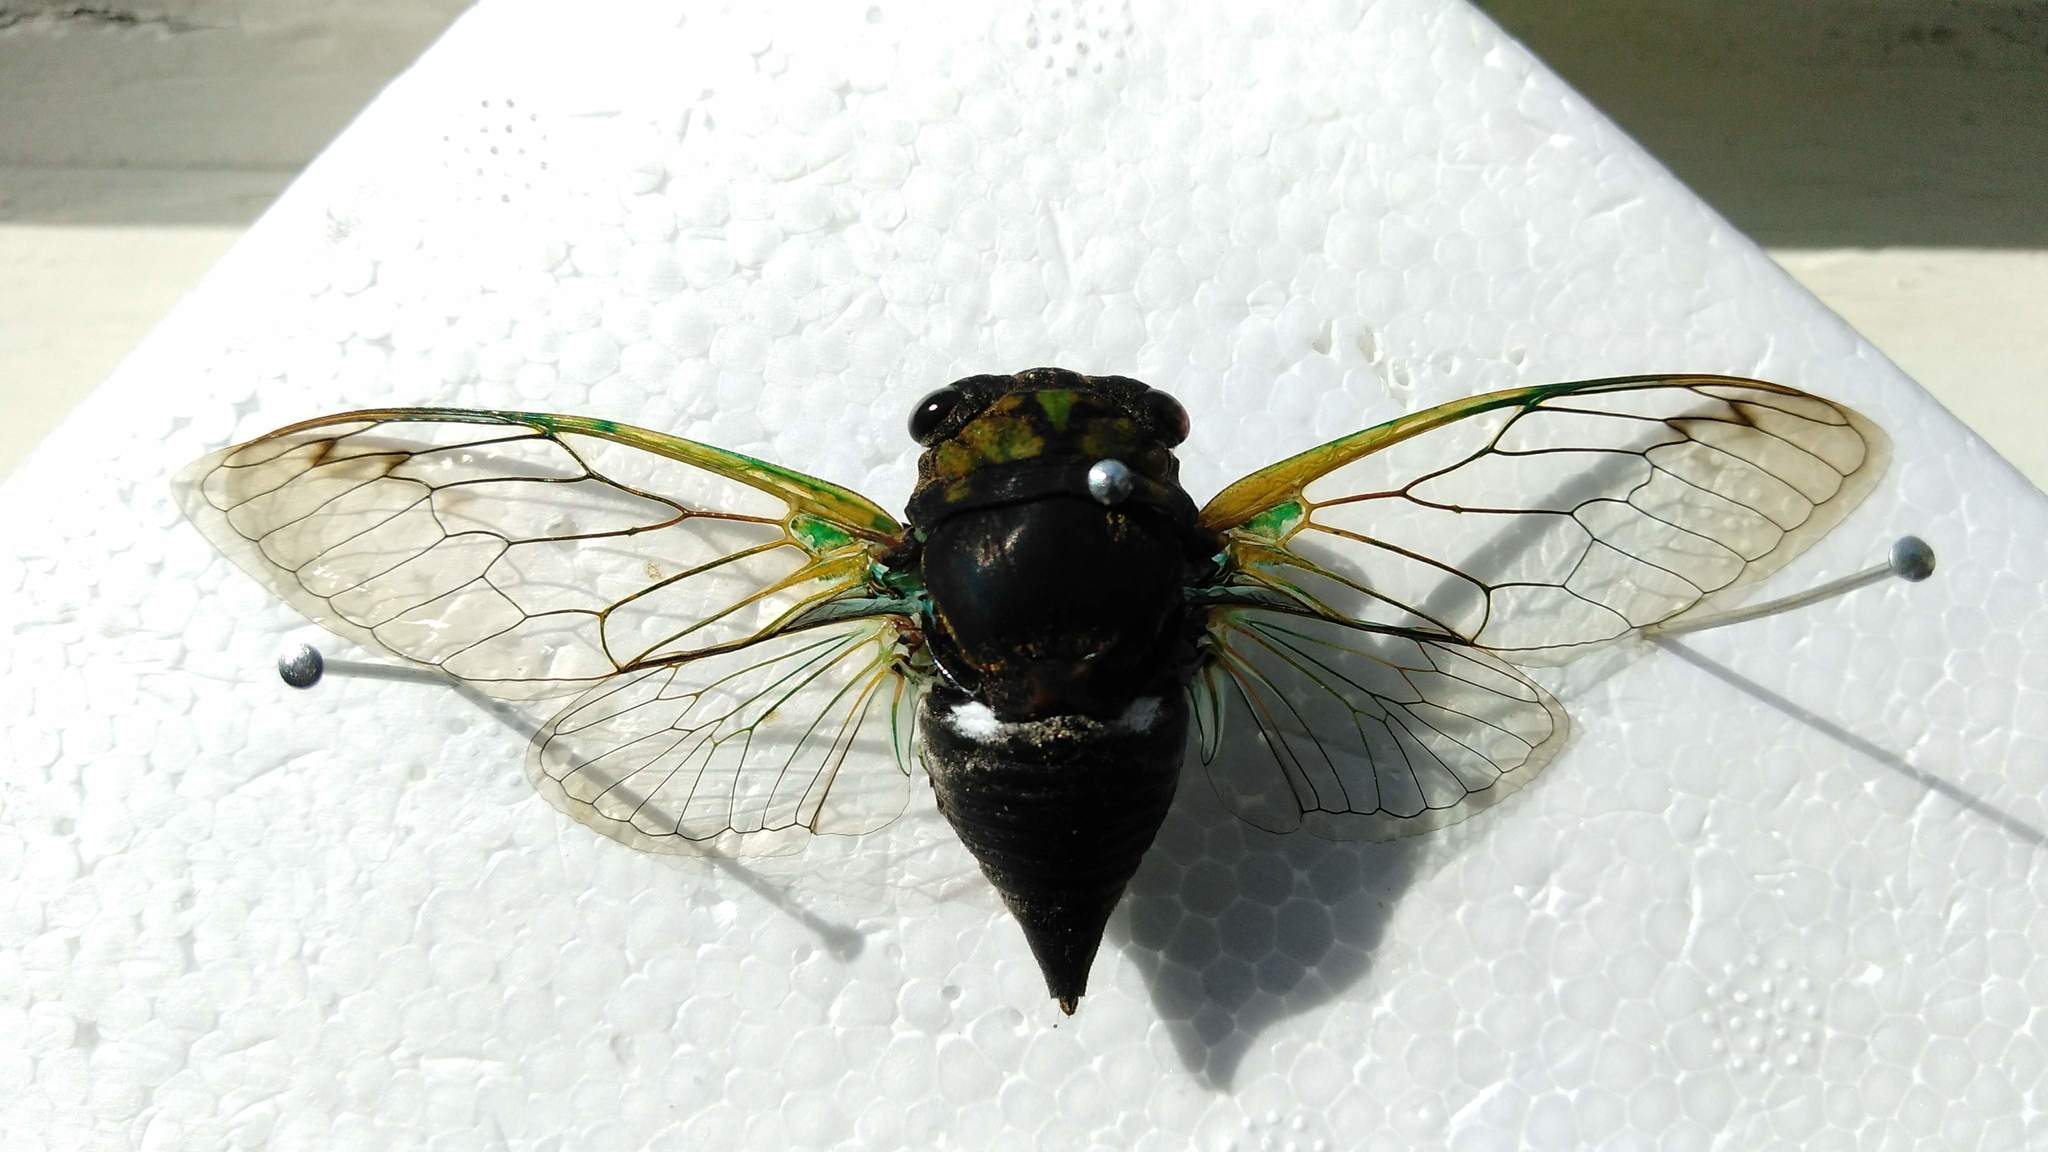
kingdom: Animalia
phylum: Arthropoda
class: Insecta
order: Hemiptera
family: Cicadidae
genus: Neotibicen
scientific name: Neotibicen tibicen
